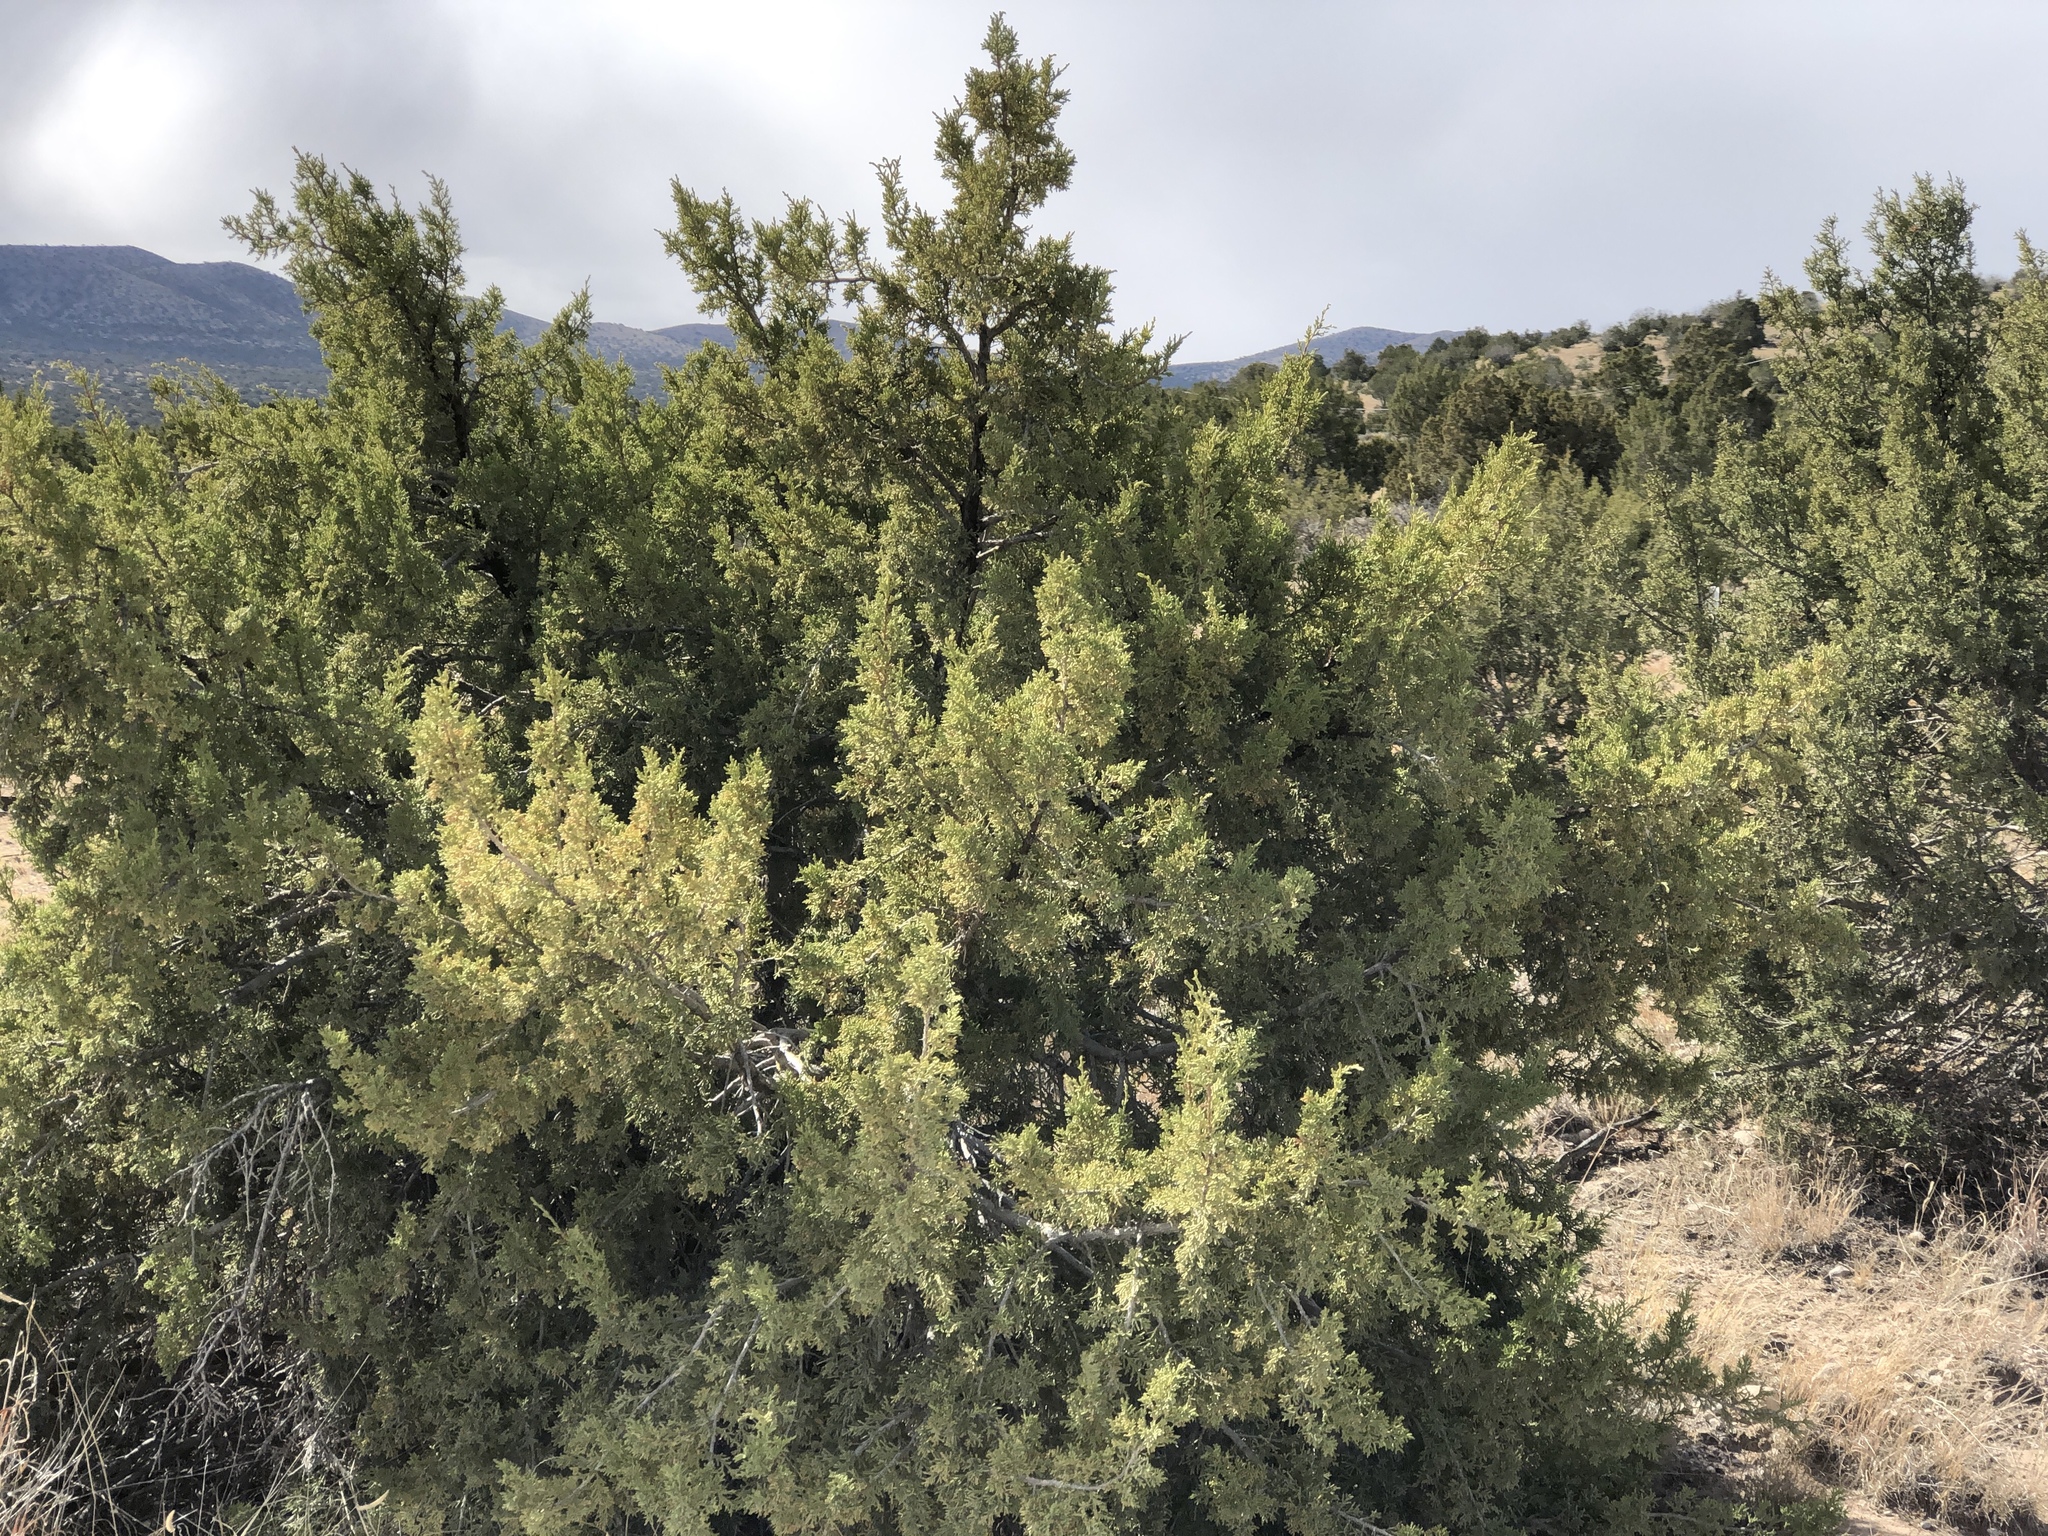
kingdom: Plantae
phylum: Tracheophyta
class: Pinopsida
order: Pinales
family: Cupressaceae
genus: Juniperus
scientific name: Juniperus monosperma
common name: One-seed juniper
